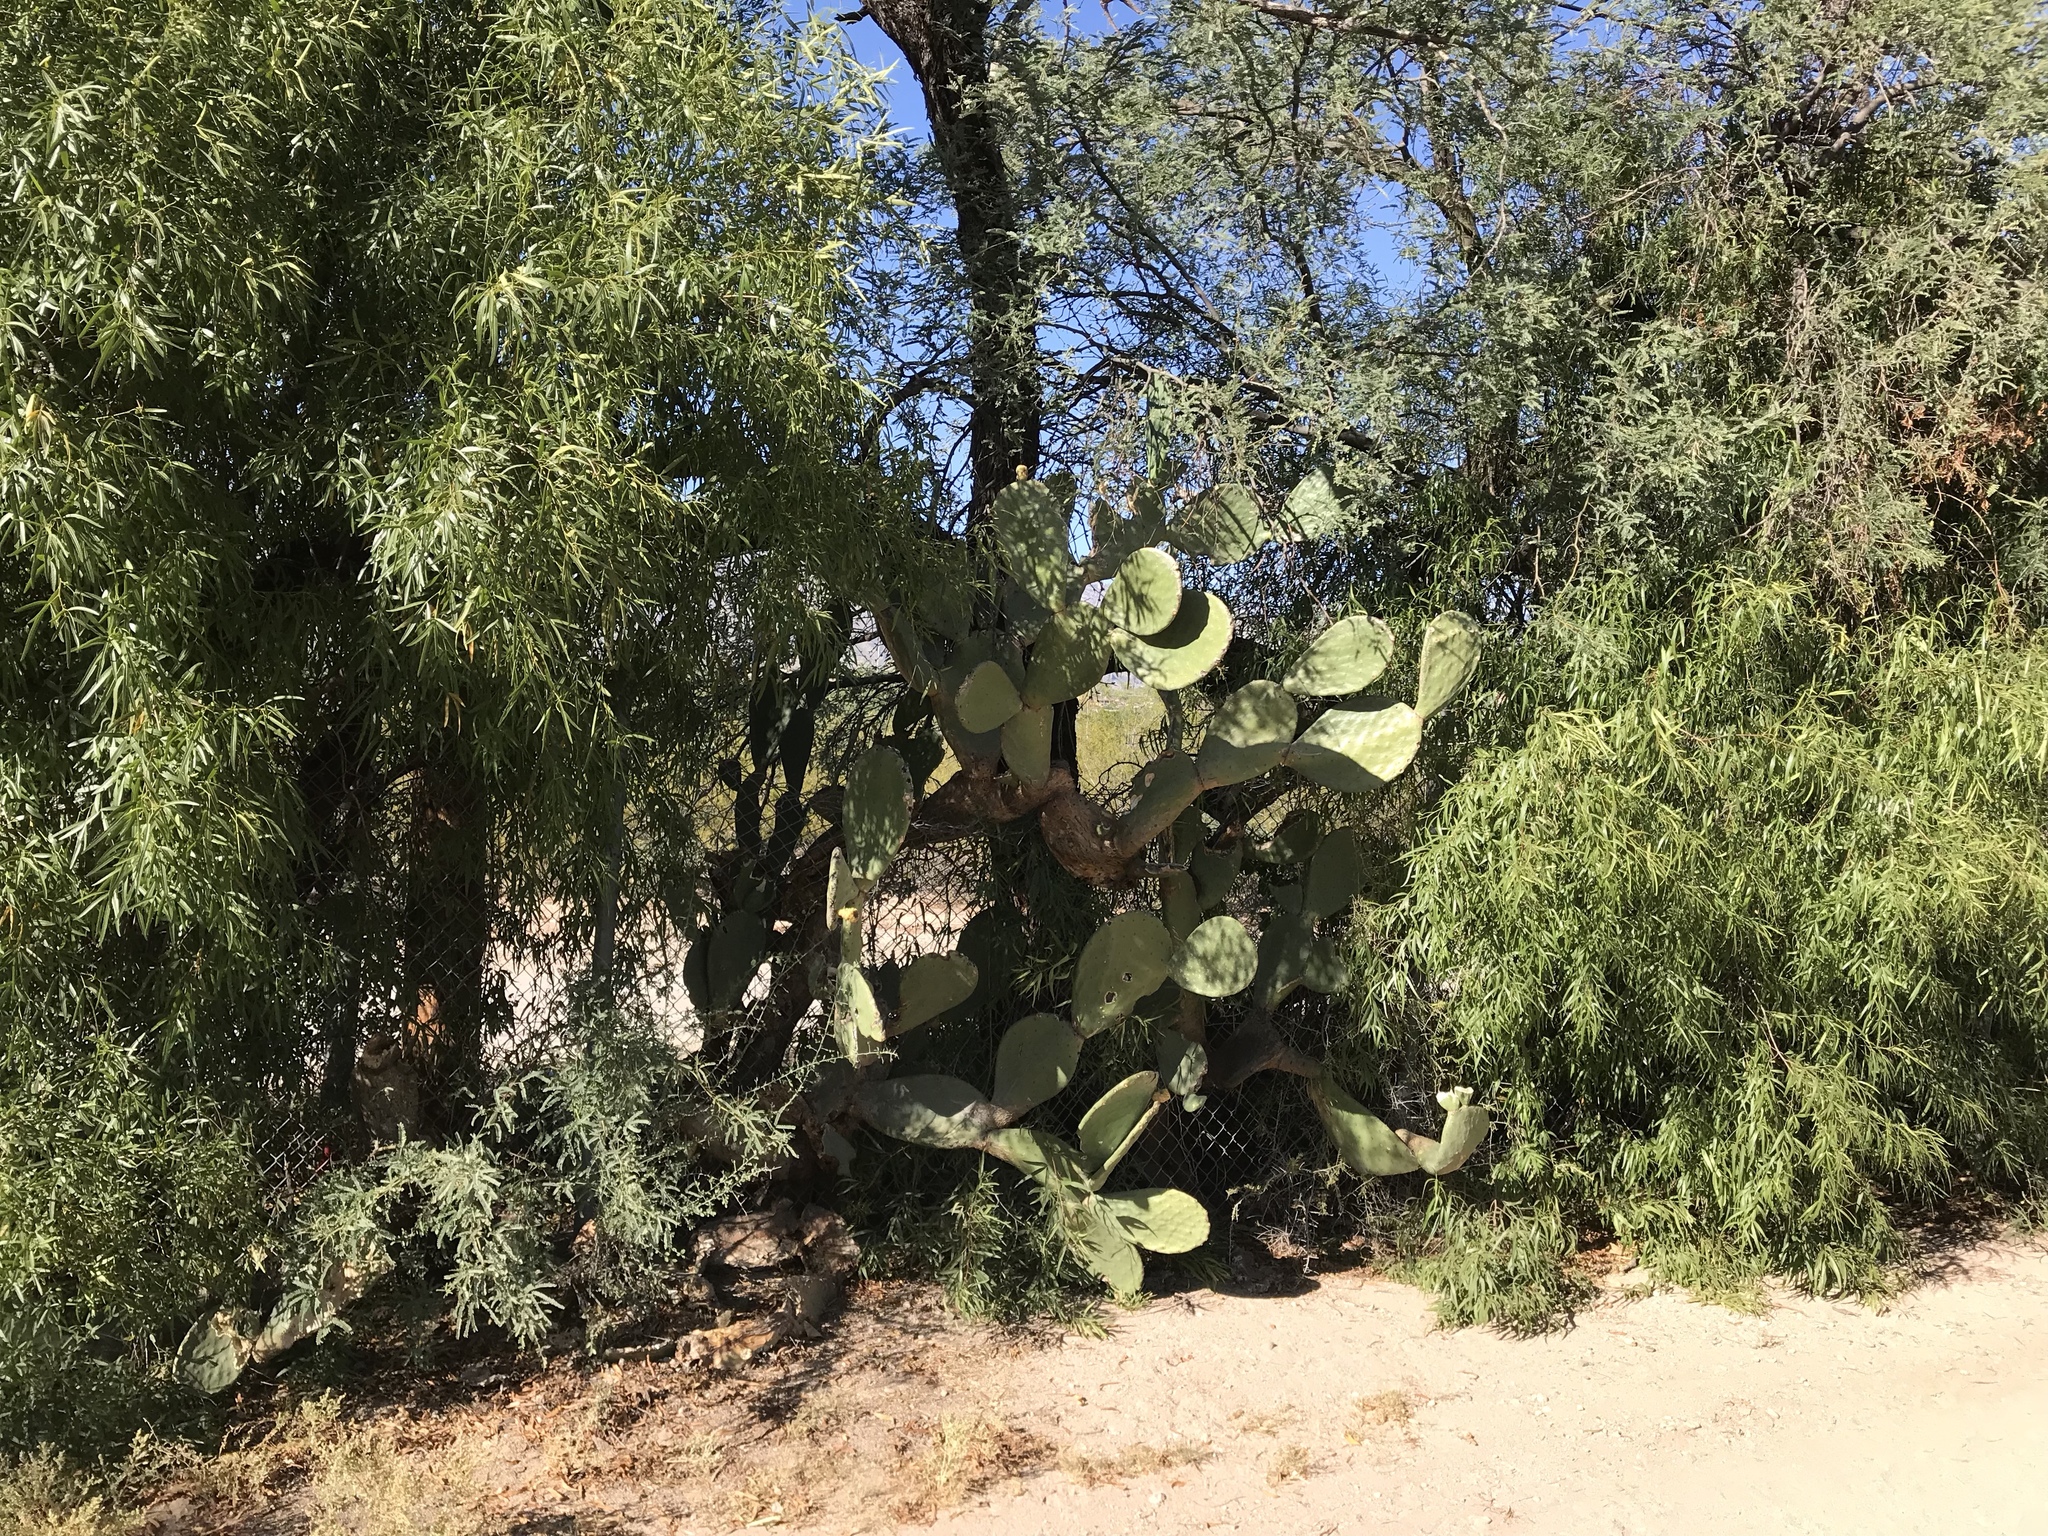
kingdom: Plantae
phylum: Tracheophyta
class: Magnoliopsida
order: Caryophyllales
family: Cactaceae
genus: Opuntia
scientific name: Opuntia ficus-indica
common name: Barbary fig
